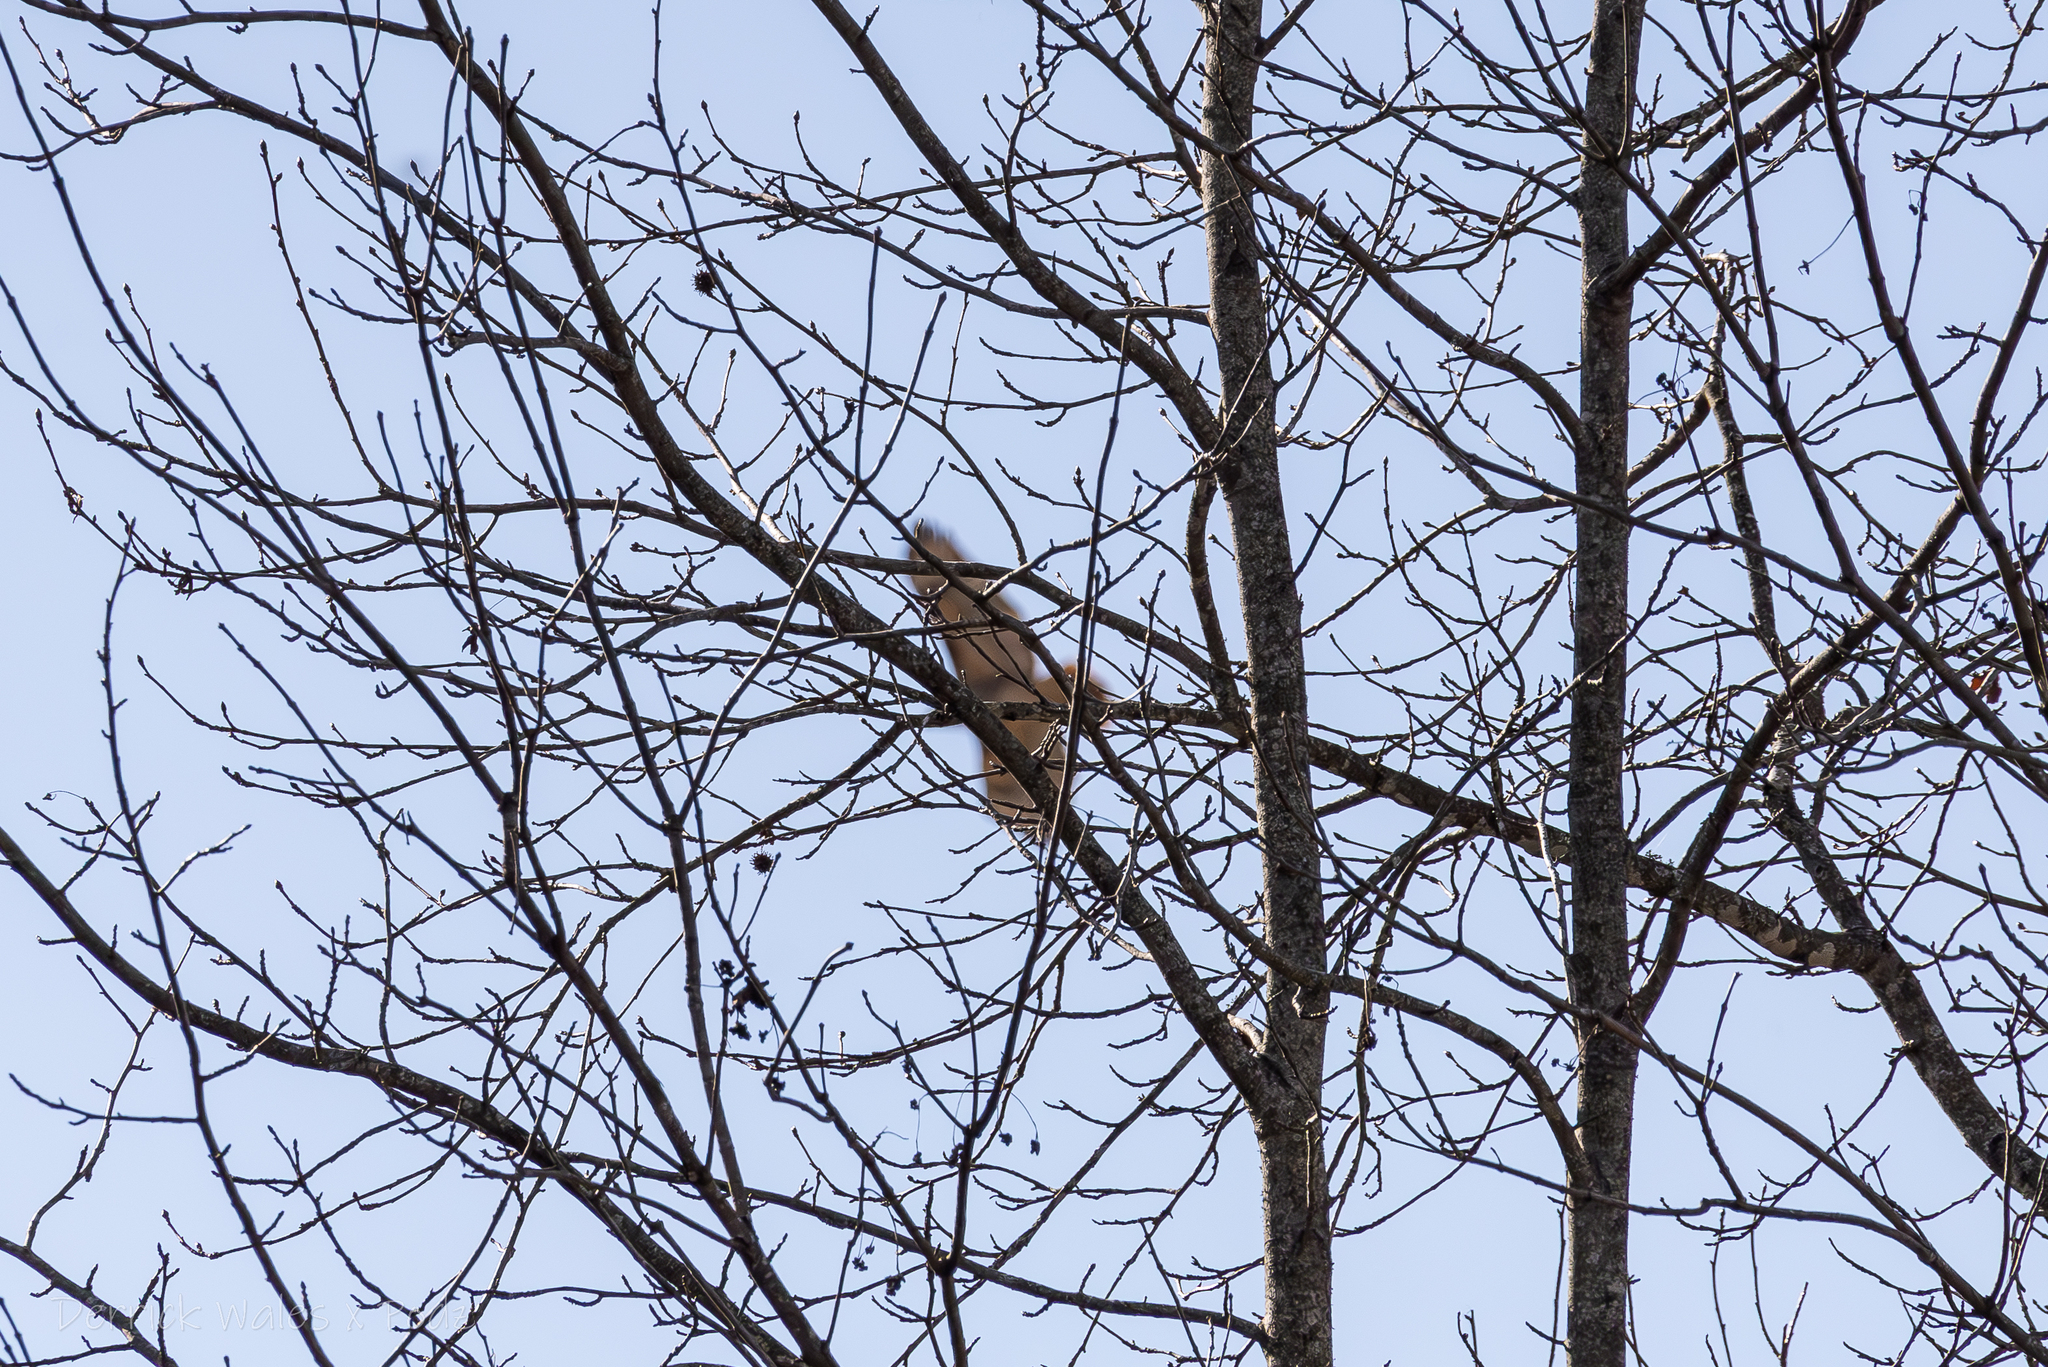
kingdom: Animalia
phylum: Chordata
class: Aves
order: Accipitriformes
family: Accipitridae
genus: Buteo
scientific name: Buteo jamaicensis
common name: Red-tailed hawk
